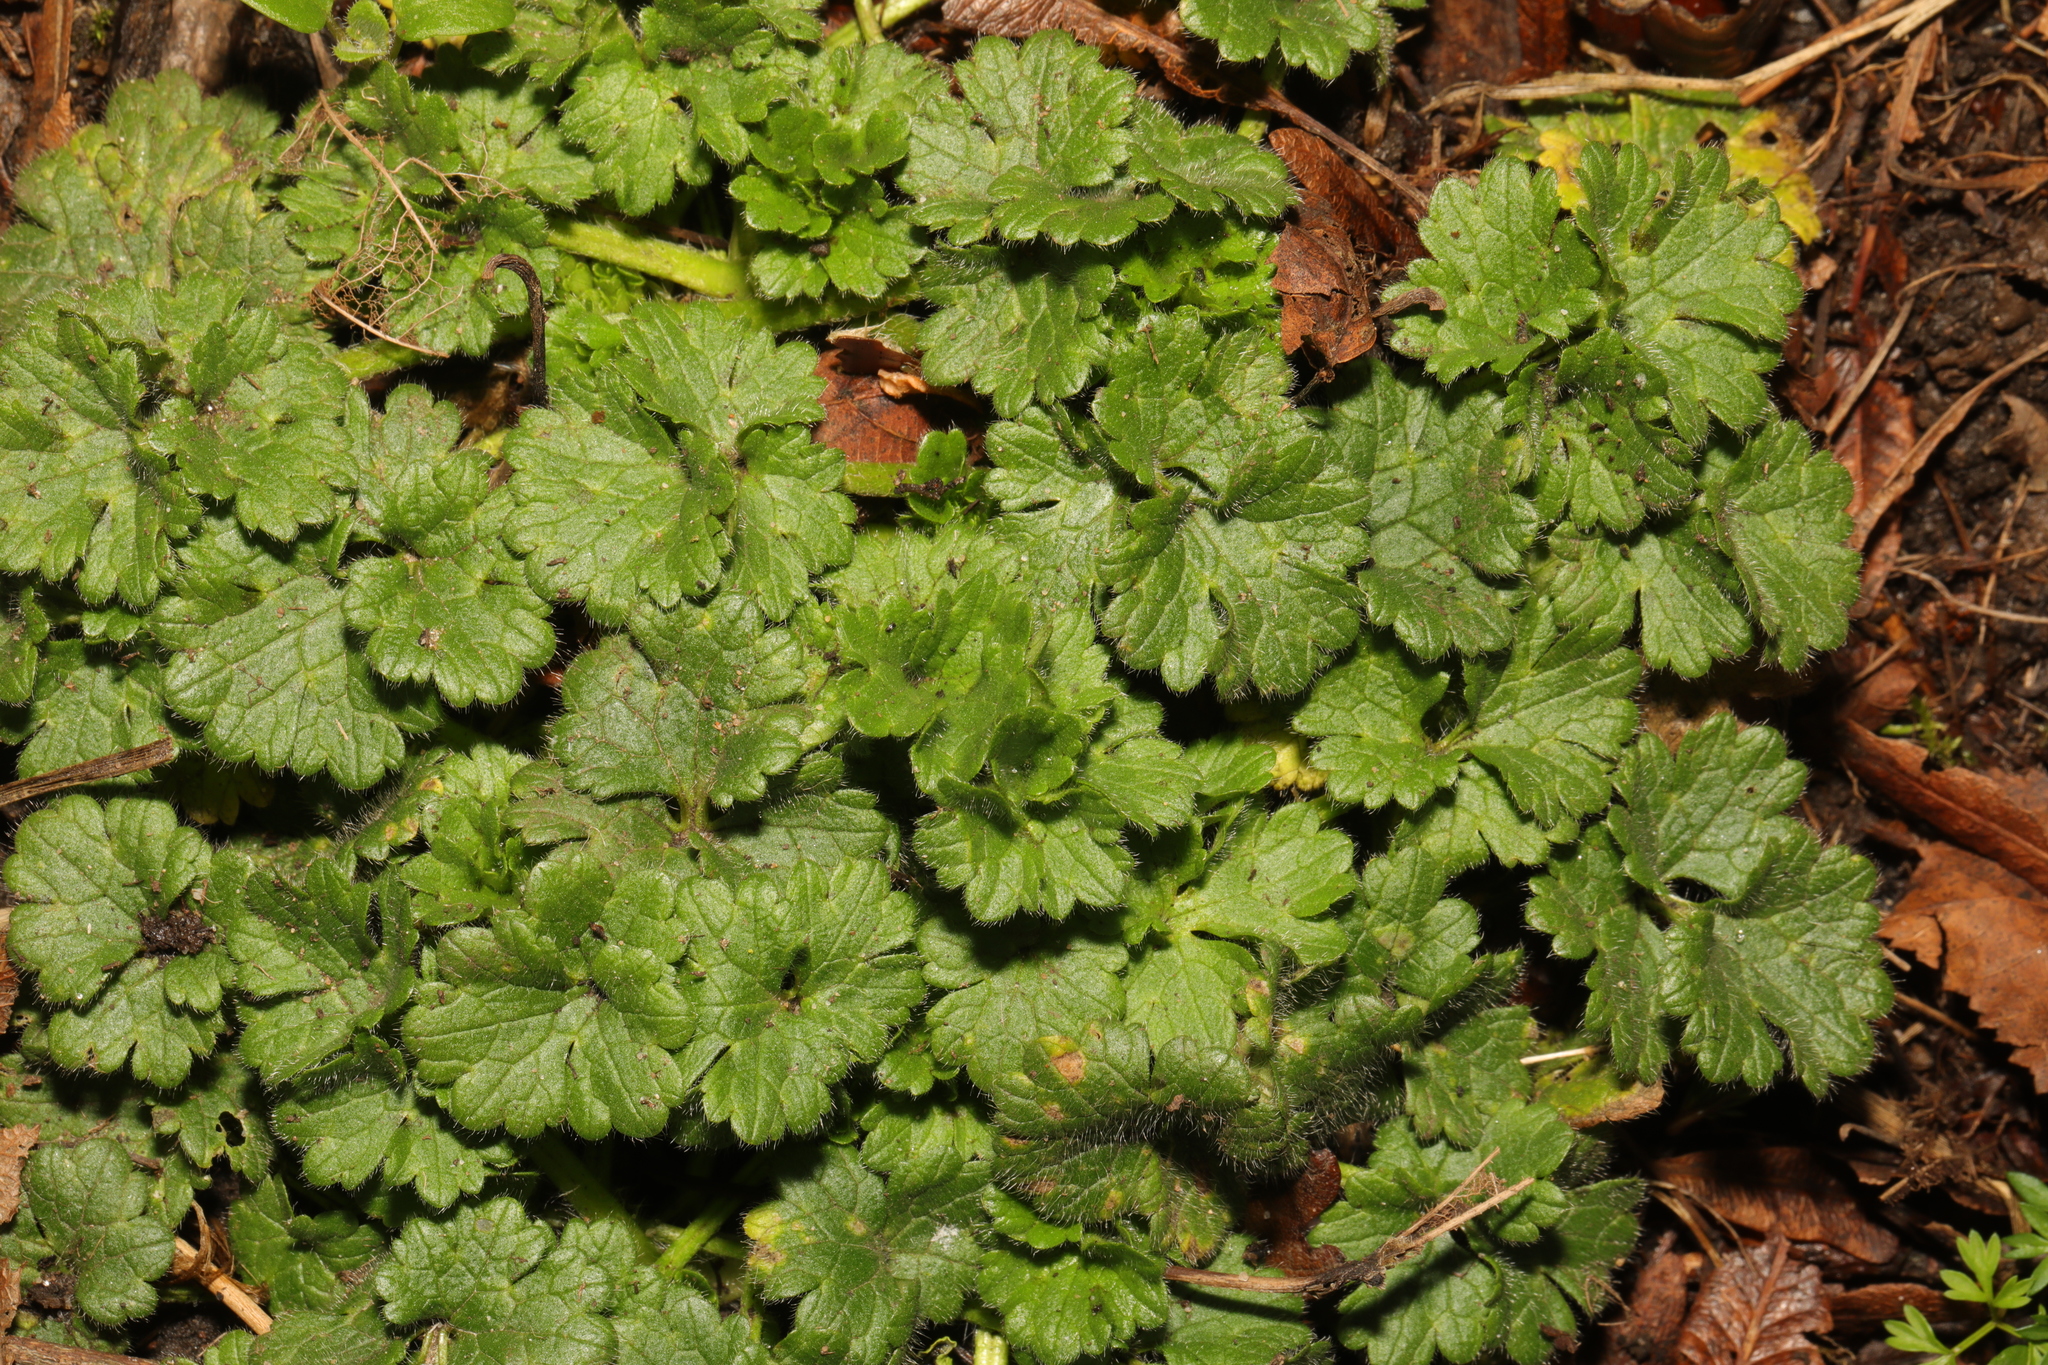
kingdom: Plantae
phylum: Tracheophyta
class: Magnoliopsida
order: Ranunculales
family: Ranunculaceae
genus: Ranunculus
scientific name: Ranunculus bulbosus
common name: Bulbous buttercup
